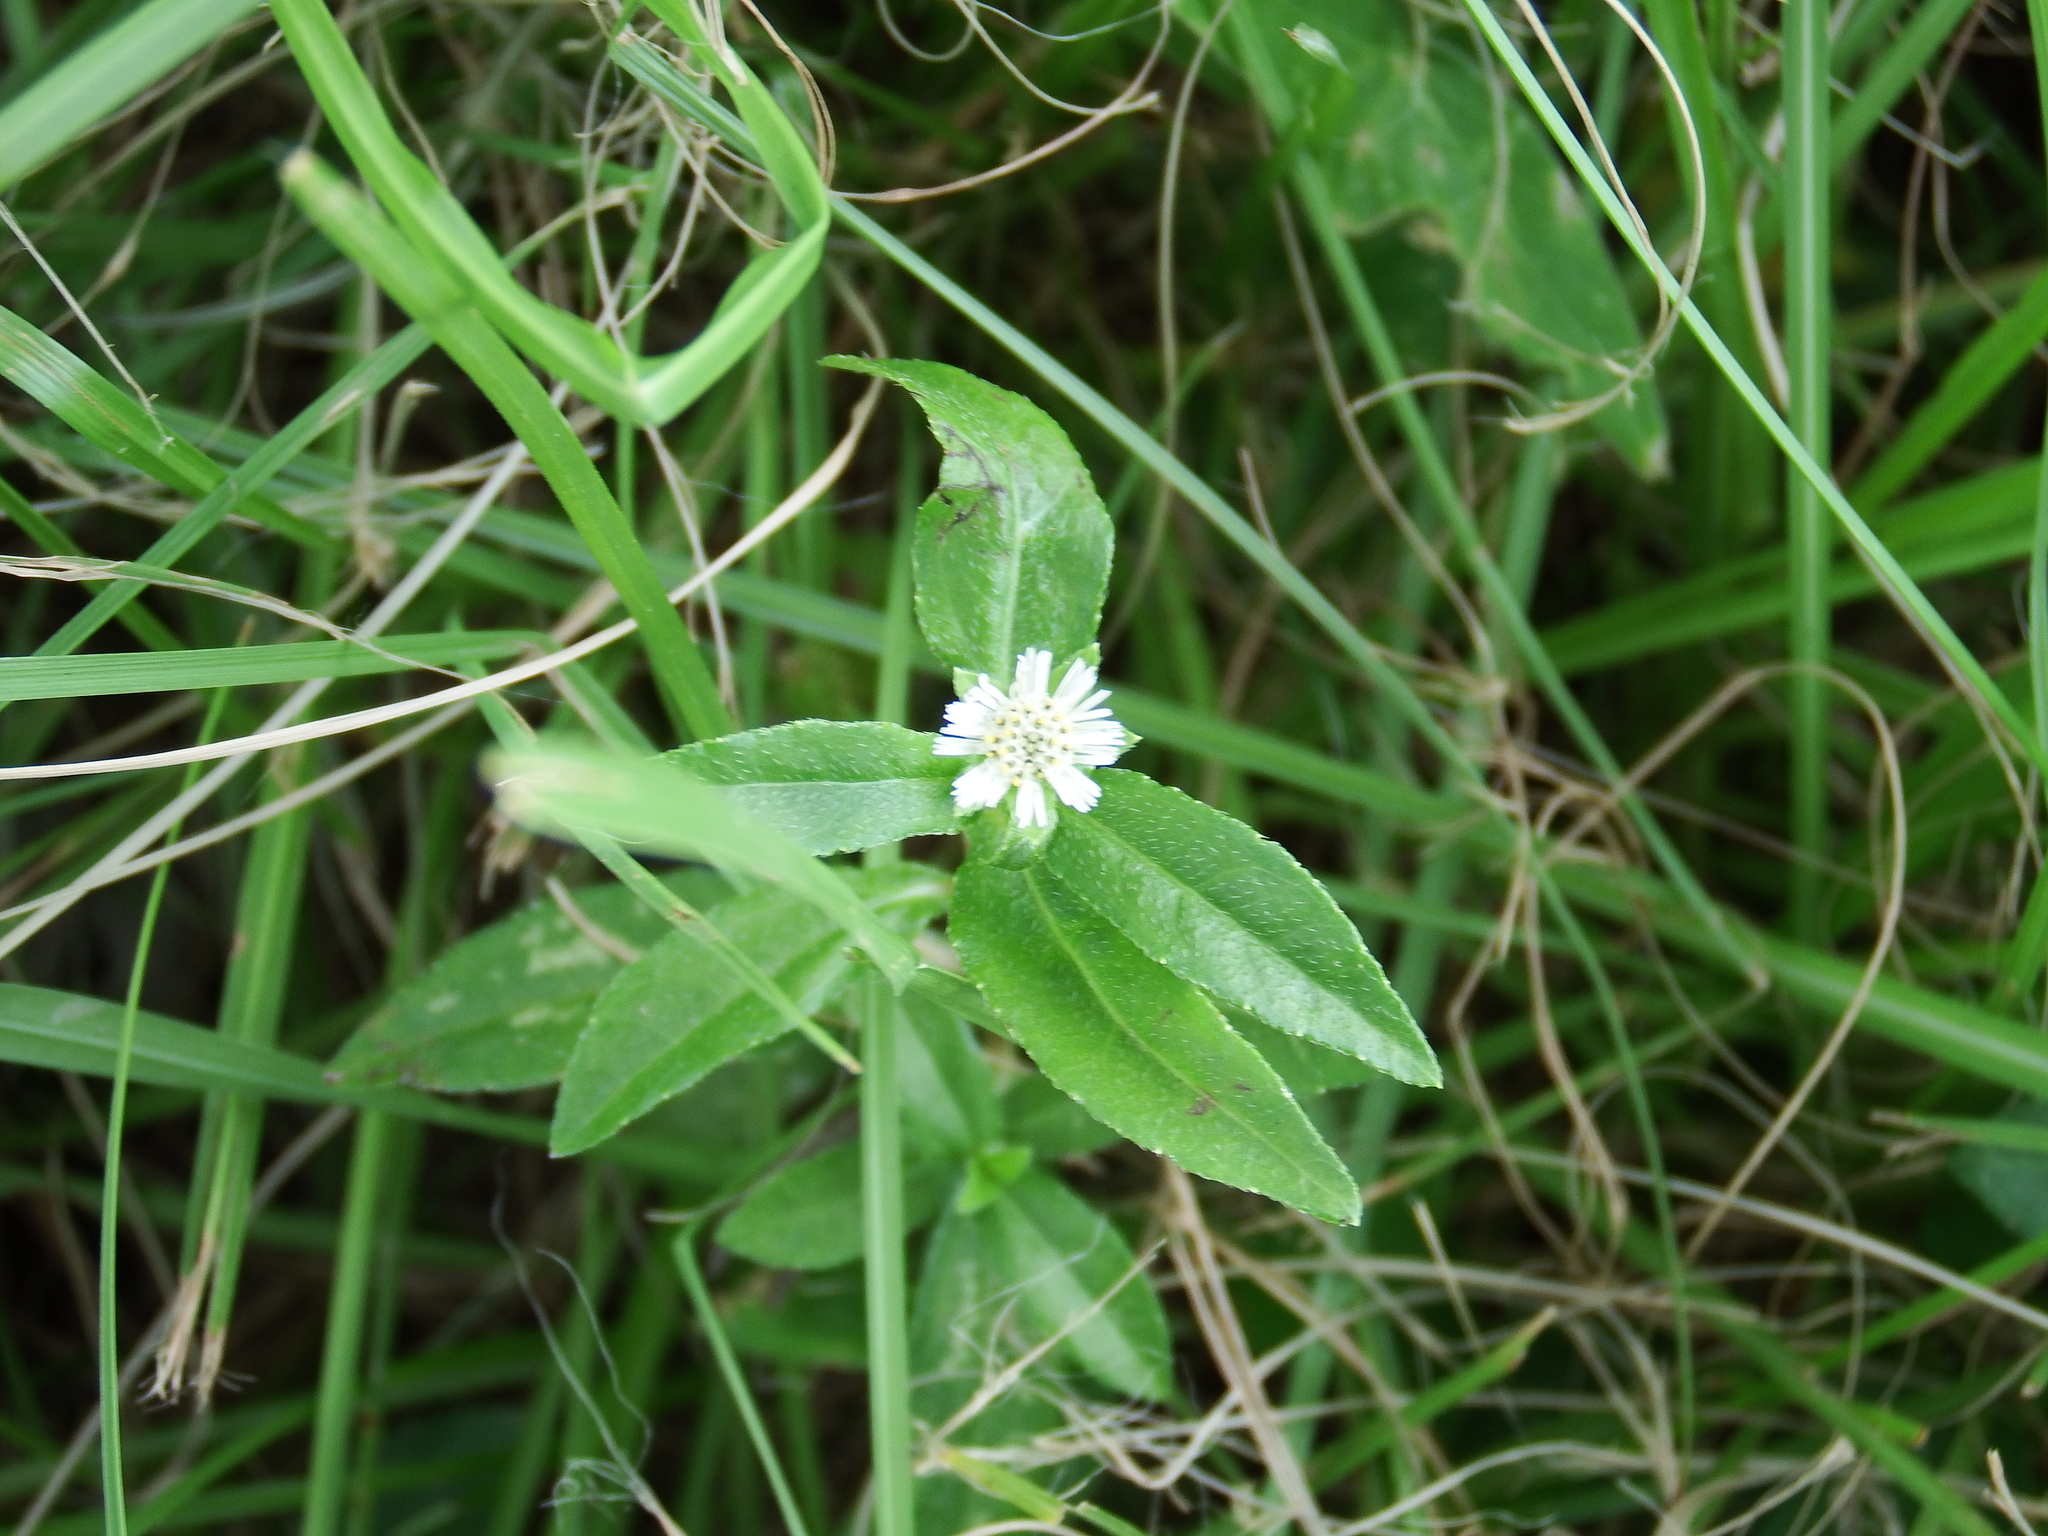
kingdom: Plantae
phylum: Tracheophyta
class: Magnoliopsida
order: Asterales
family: Asteraceae
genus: Eclipta
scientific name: Eclipta prostrata
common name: False daisy
